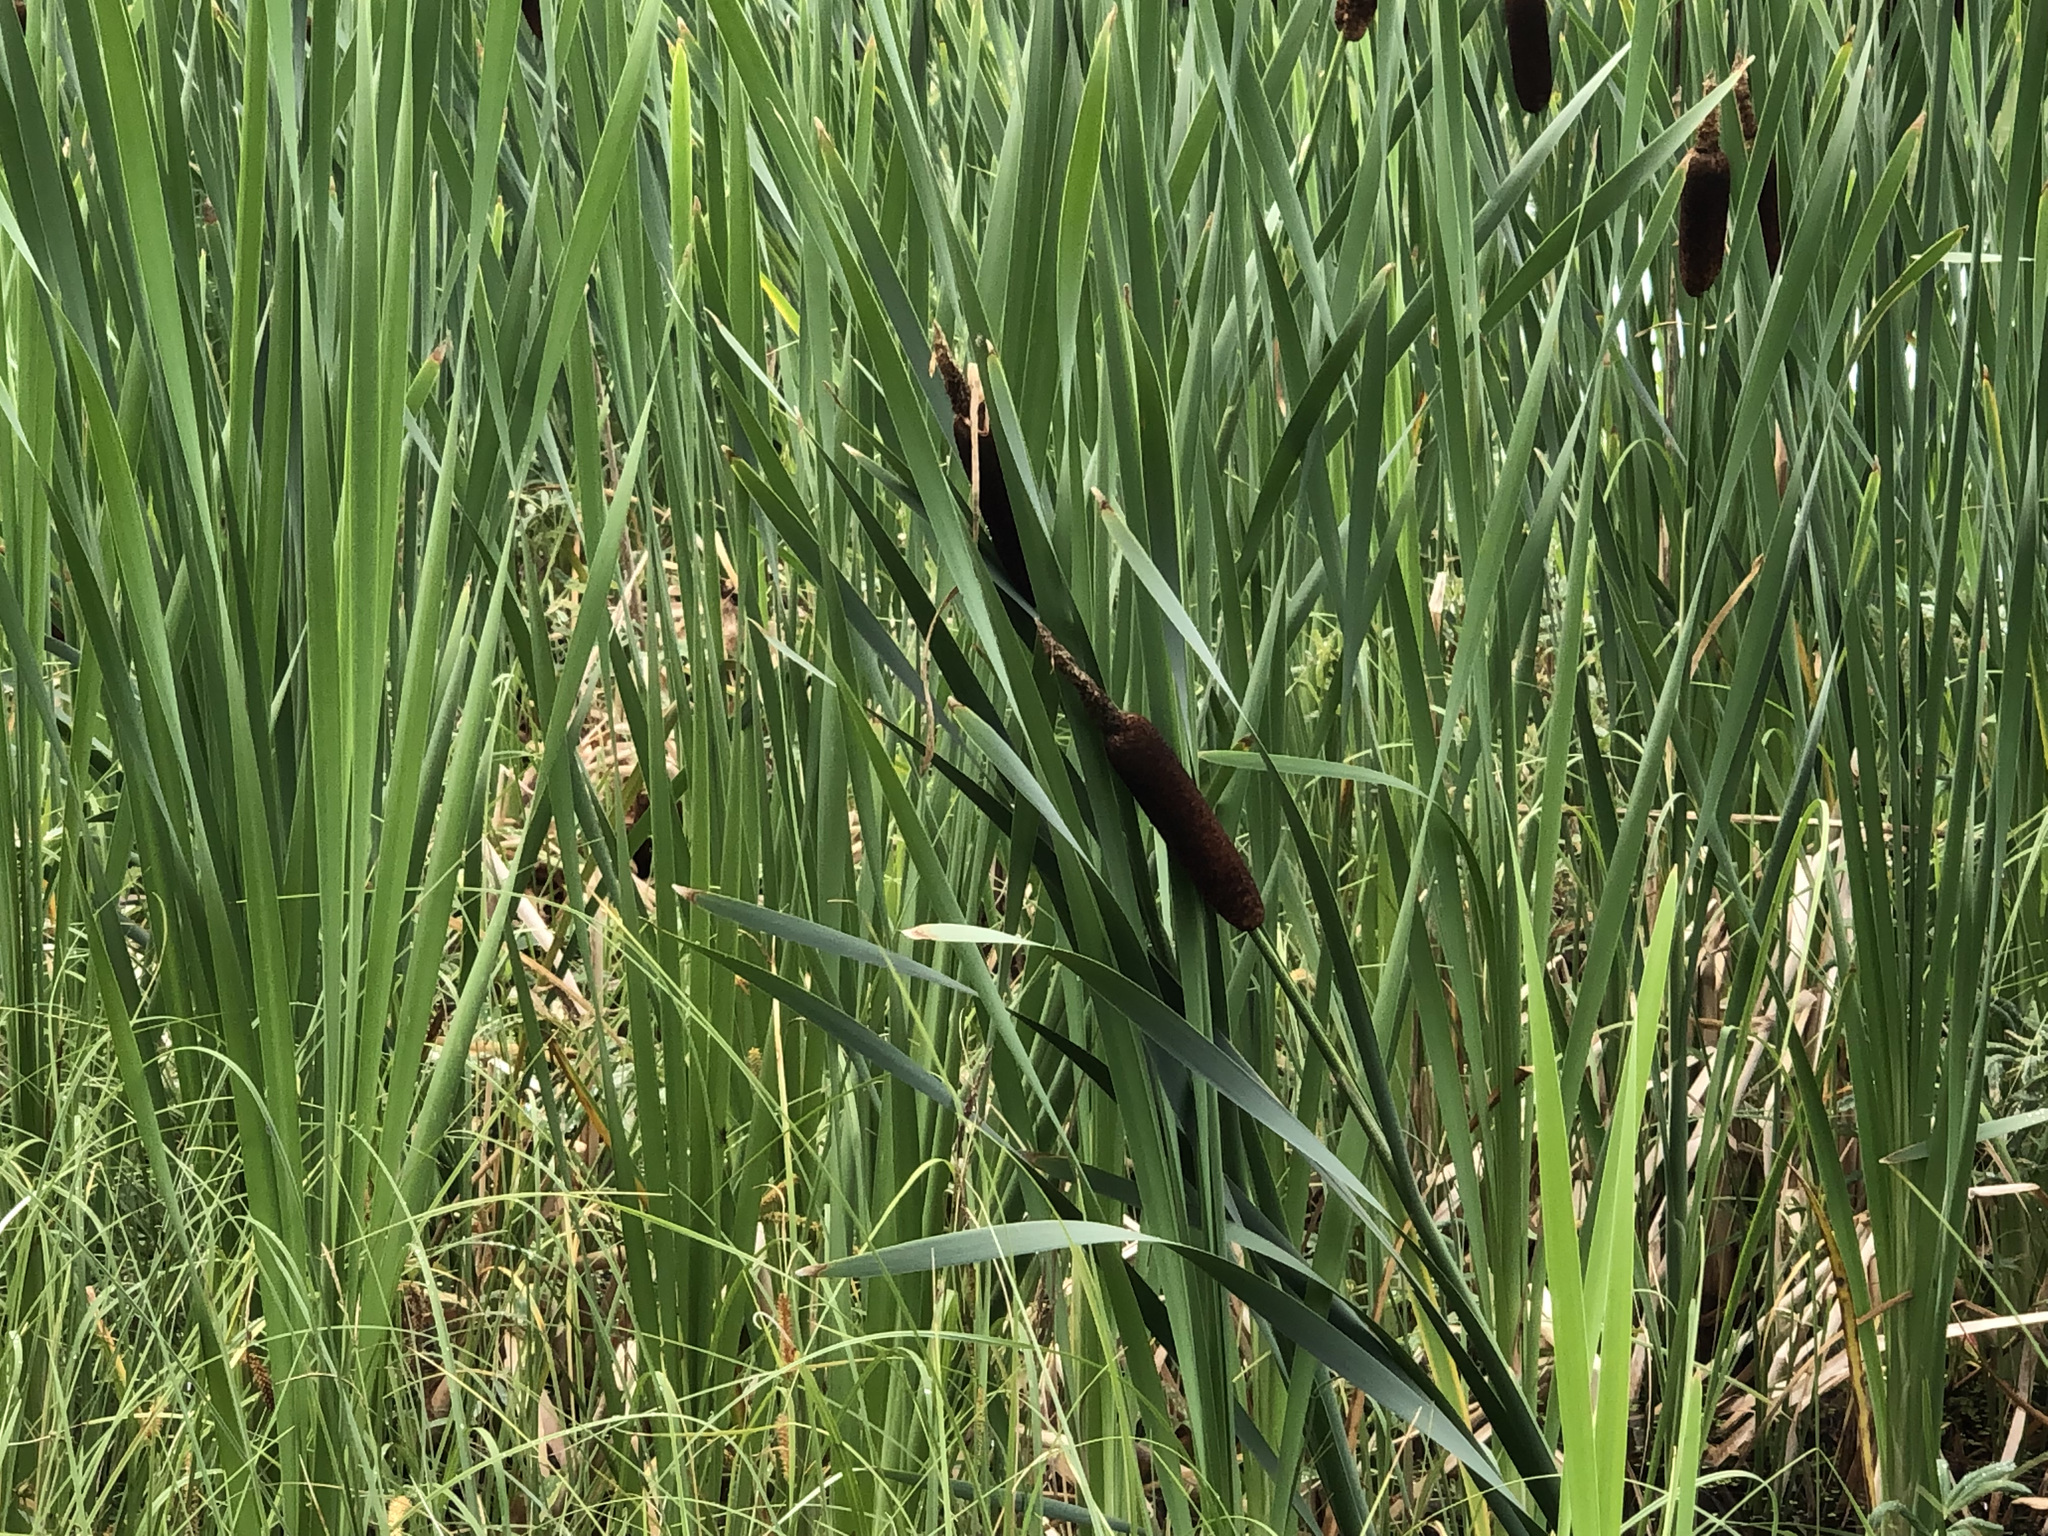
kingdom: Plantae
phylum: Tracheophyta
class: Liliopsida
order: Poales
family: Typhaceae
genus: Typha
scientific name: Typha latifolia
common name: Broadleaf cattail
